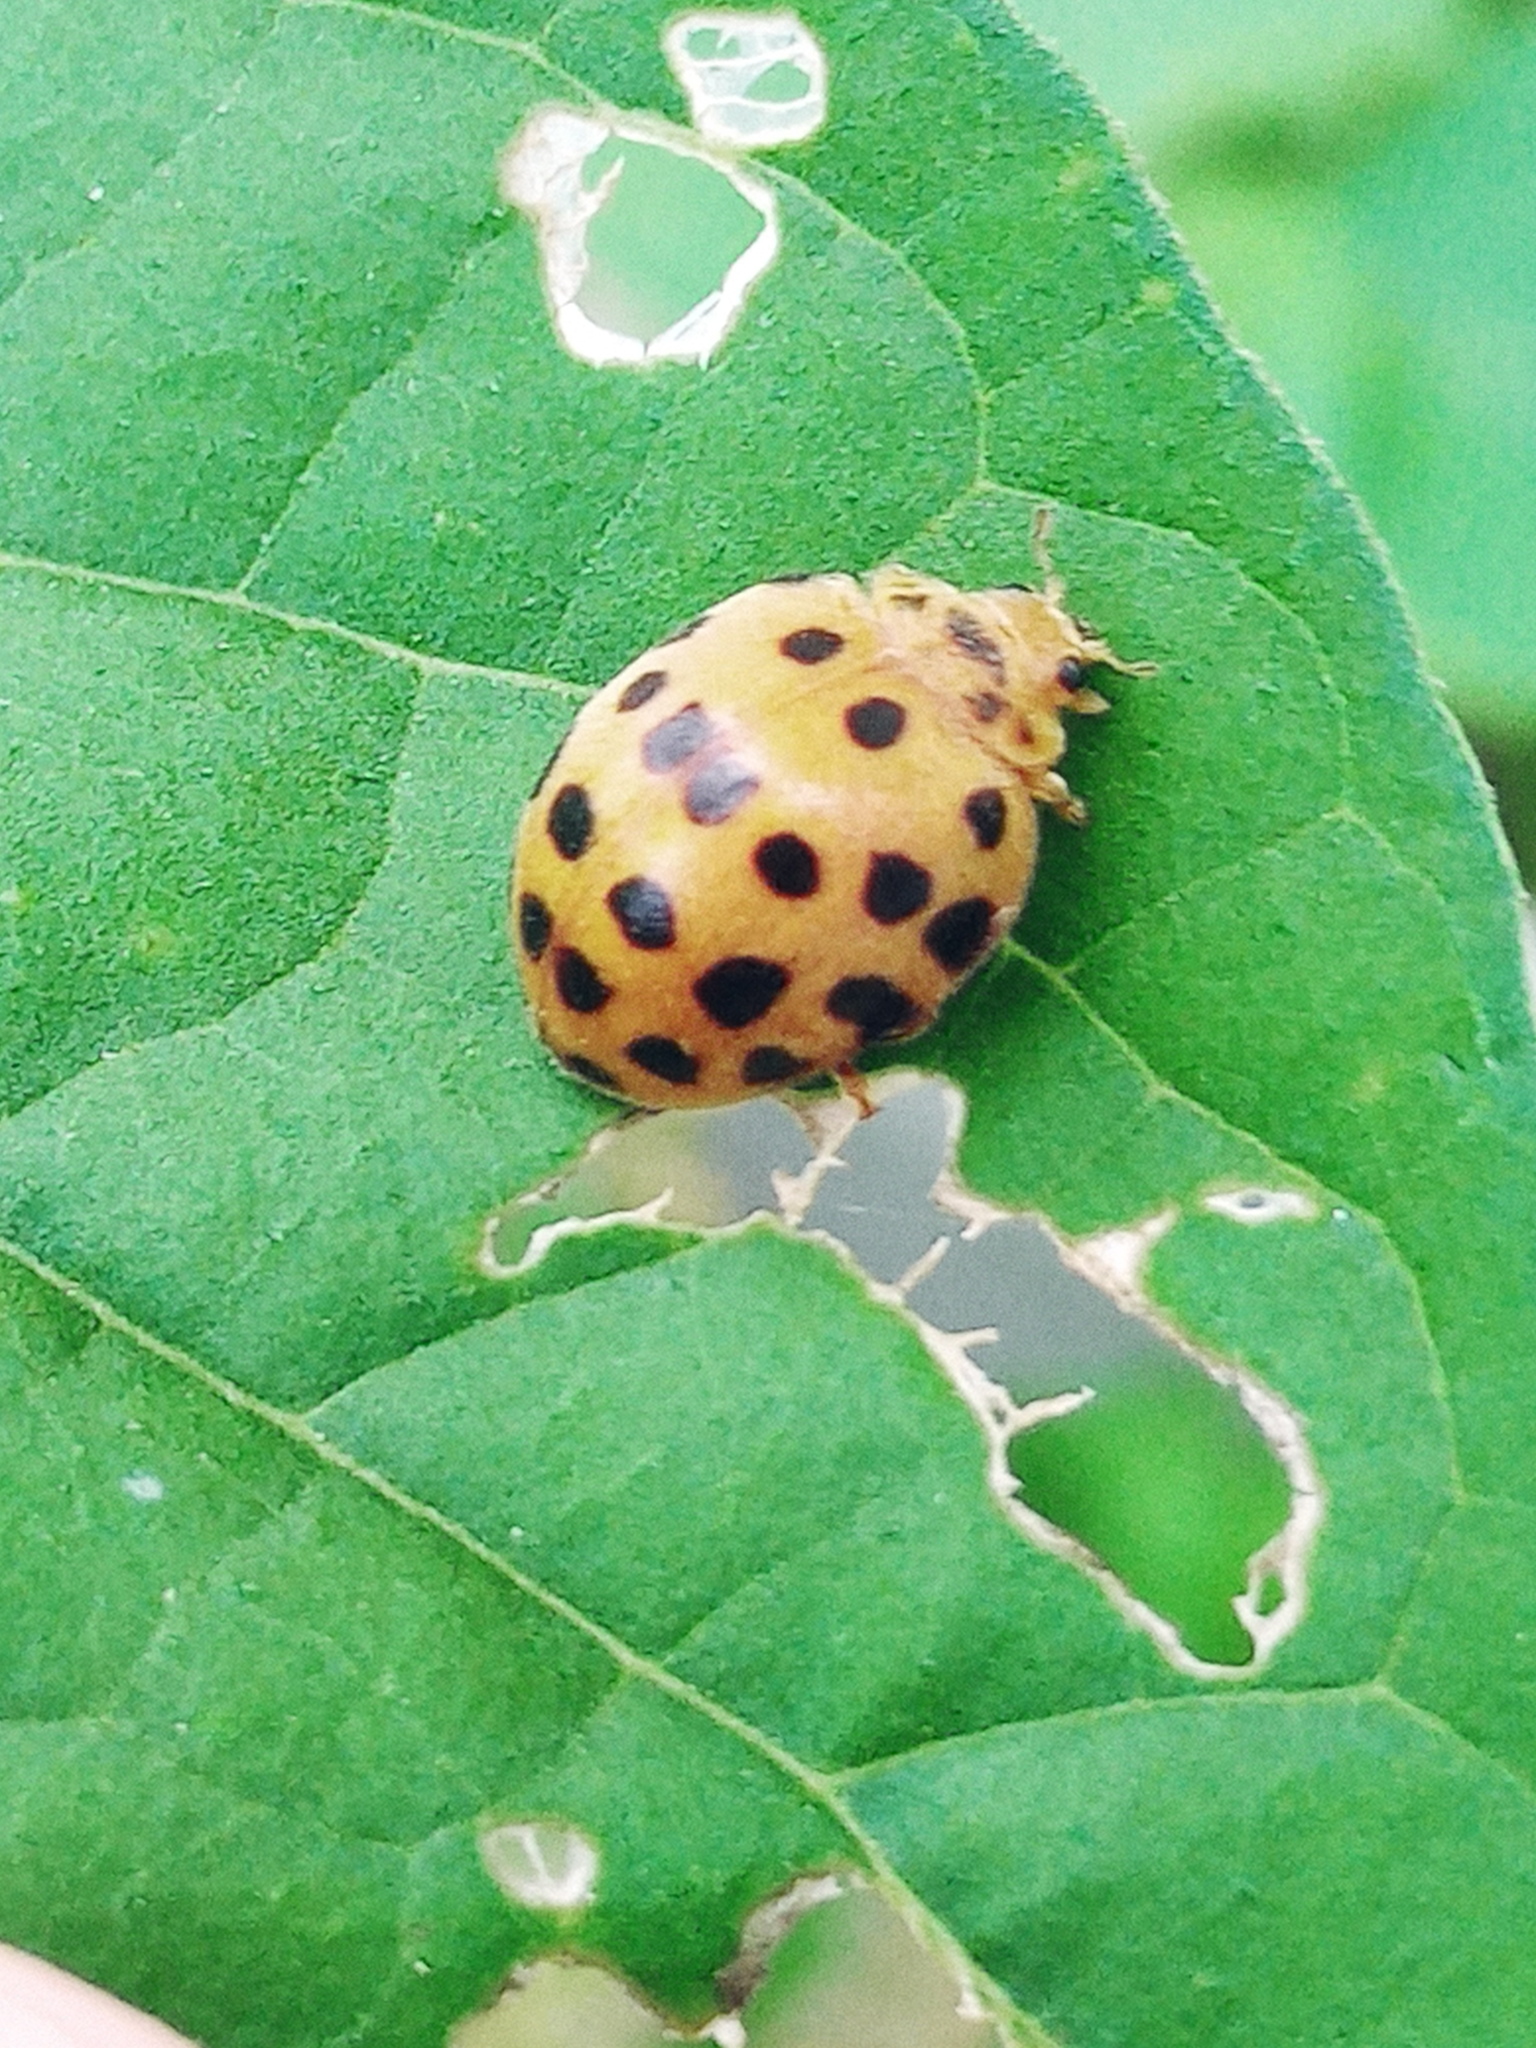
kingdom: Animalia
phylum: Arthropoda
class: Insecta
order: Coleoptera
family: Coccinellidae
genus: Henosepilachna
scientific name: Henosepilachna vigintioctopunctata
